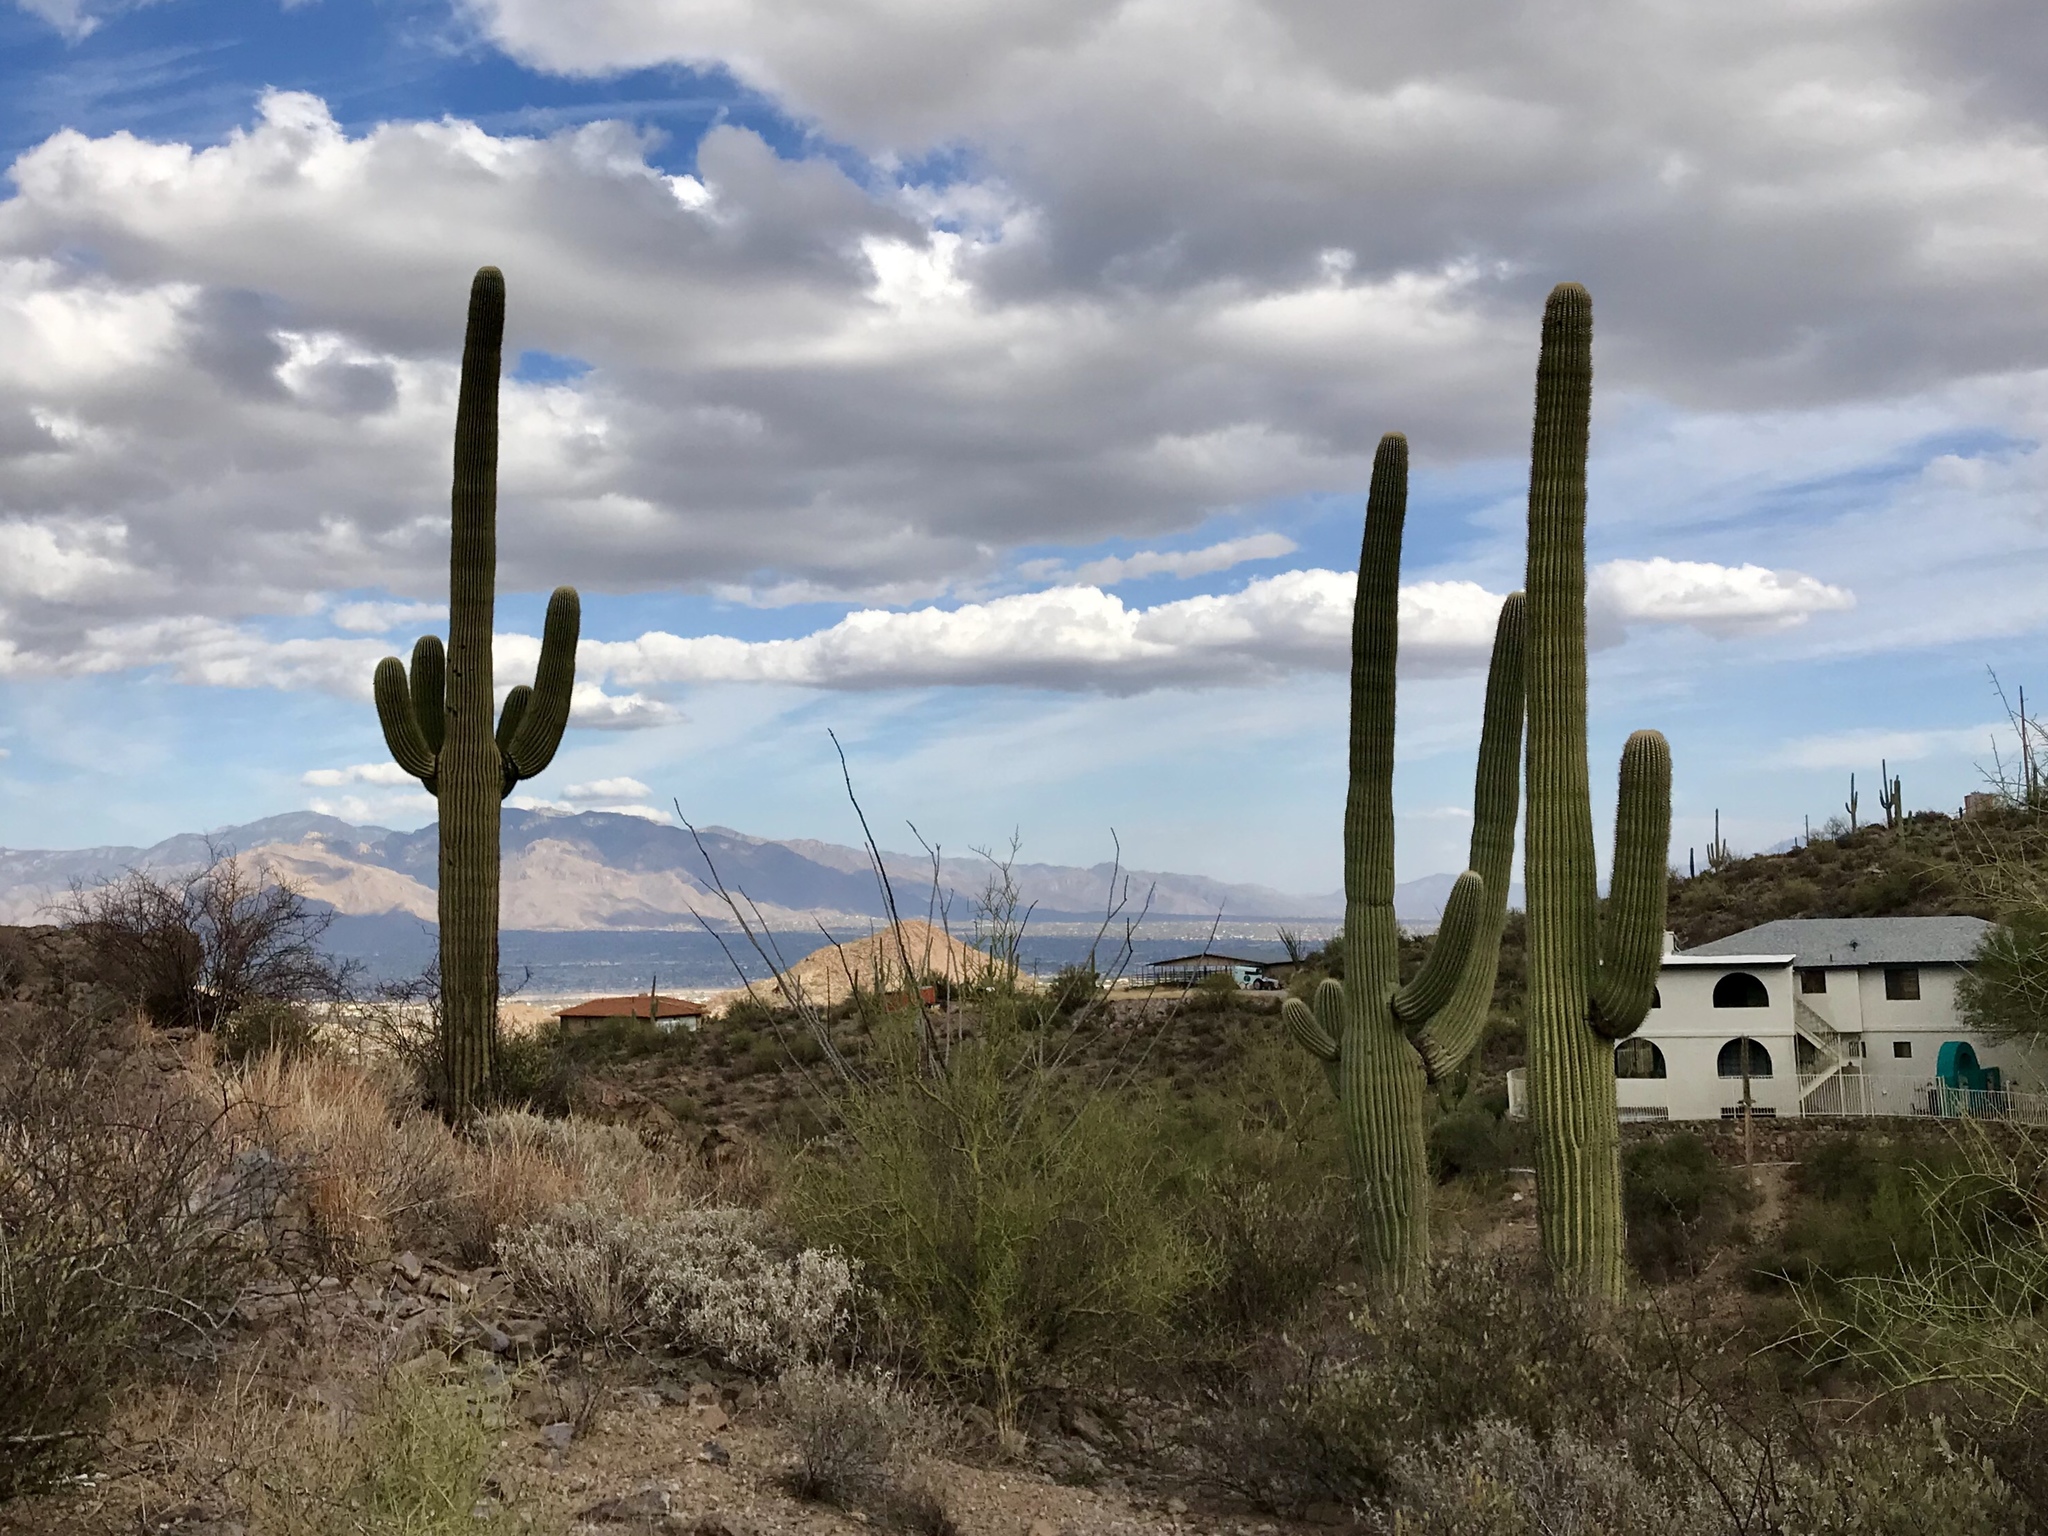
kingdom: Plantae
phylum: Tracheophyta
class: Magnoliopsida
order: Caryophyllales
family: Cactaceae
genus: Carnegiea
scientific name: Carnegiea gigantea
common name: Saguaro
